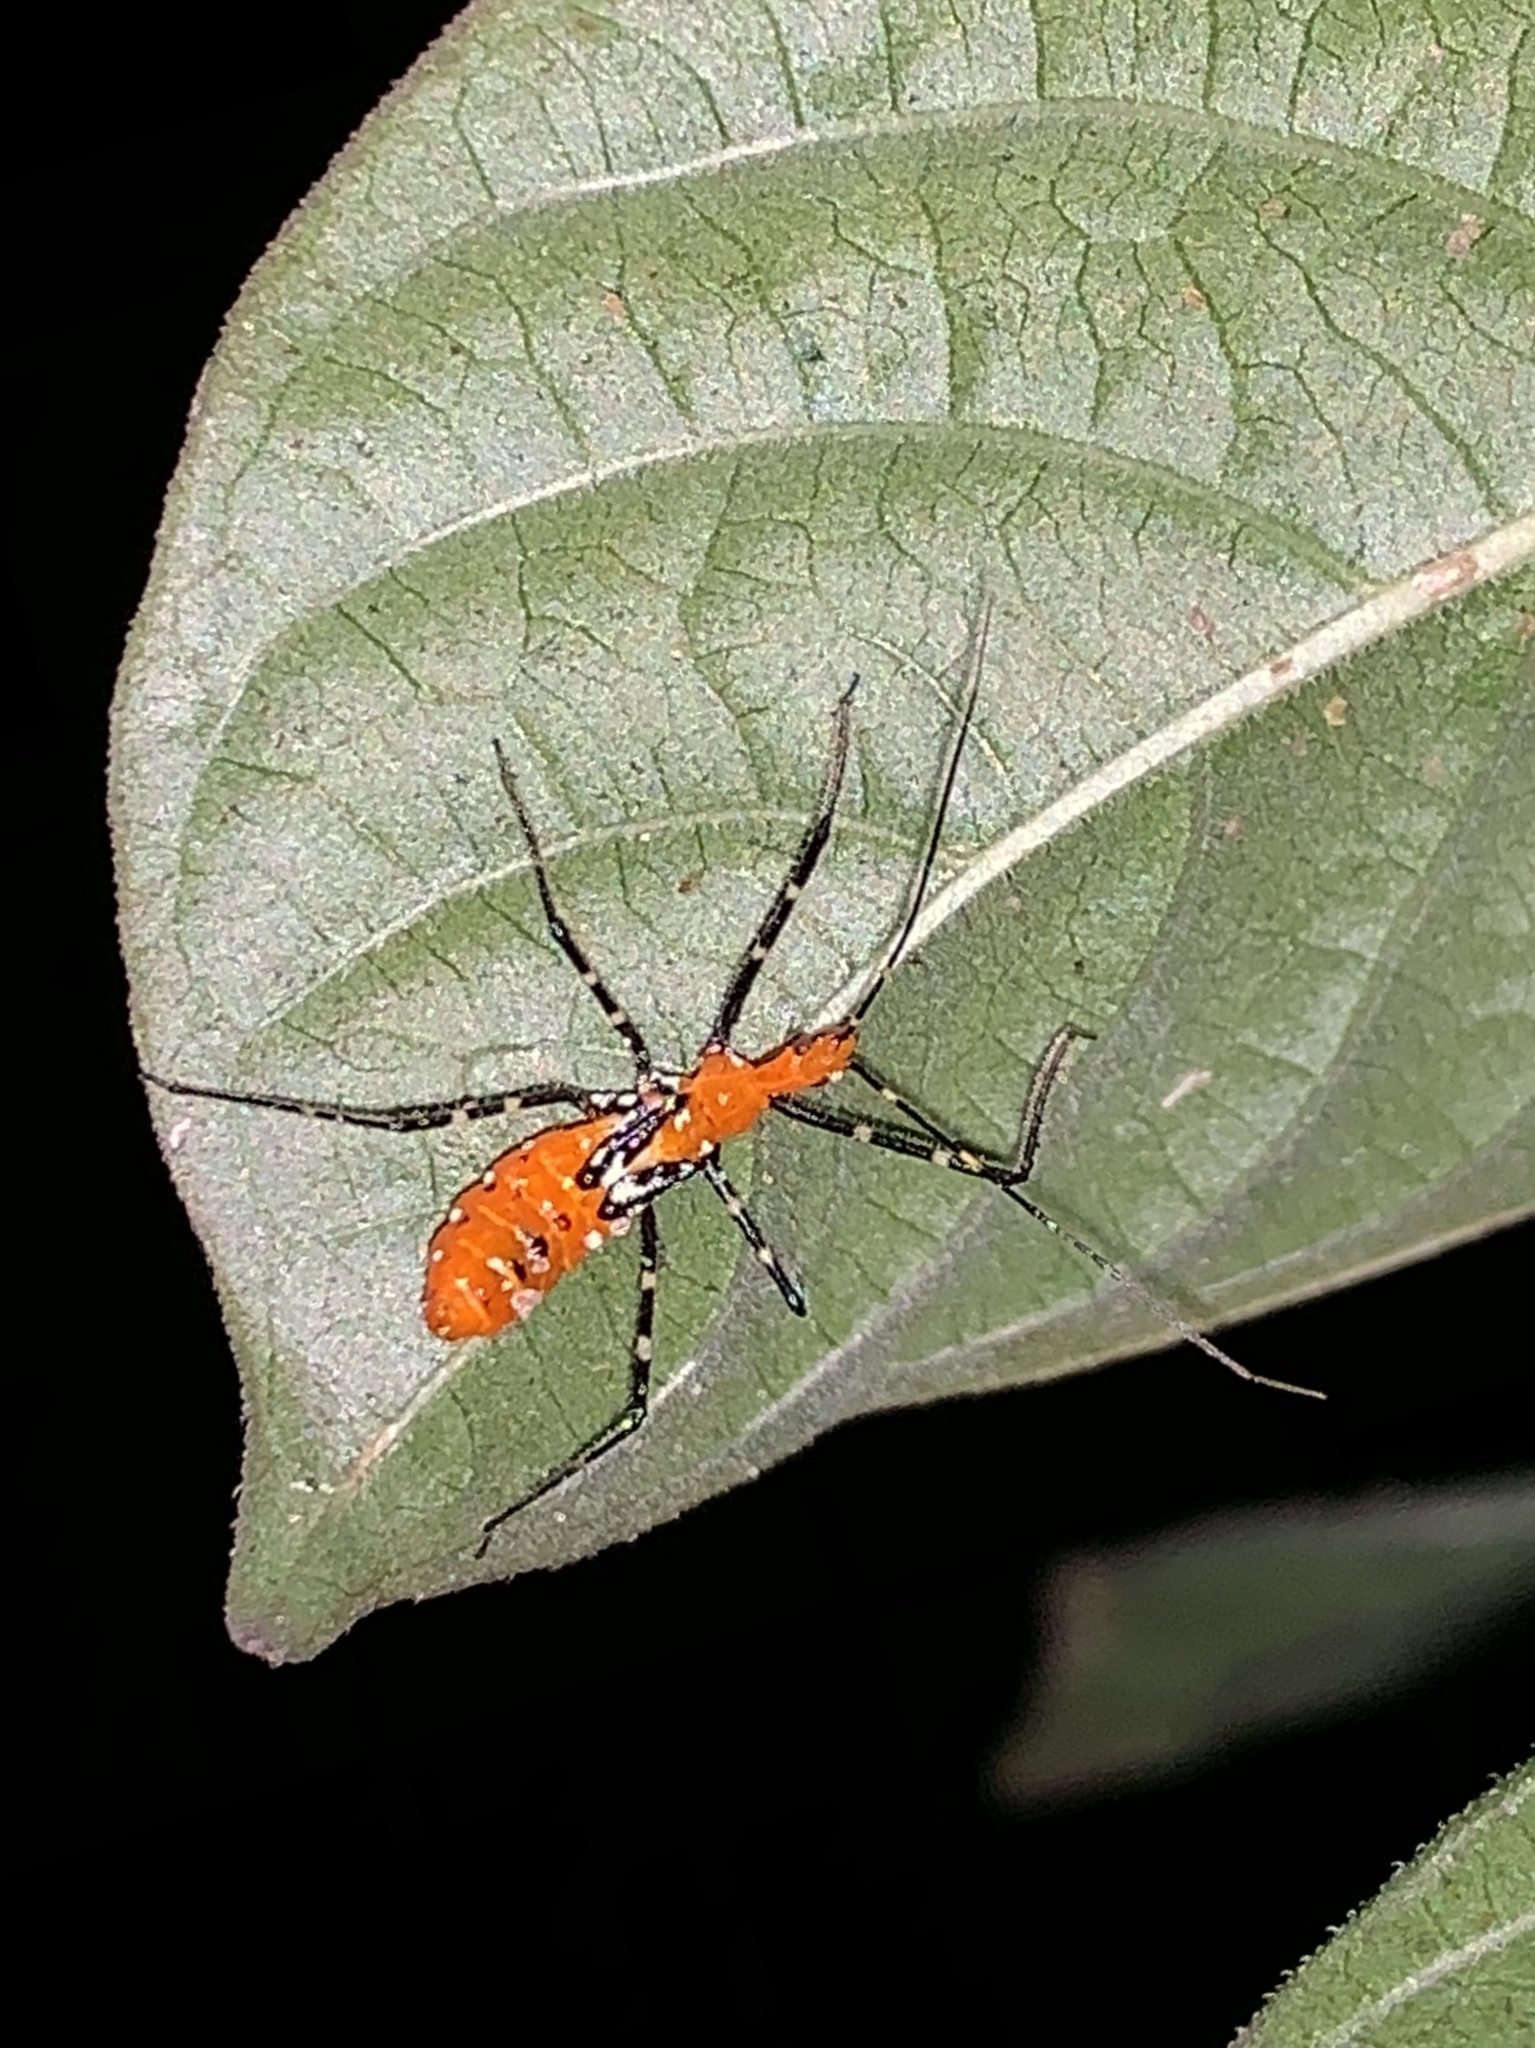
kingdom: Animalia
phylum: Arthropoda
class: Insecta
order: Hemiptera
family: Reduviidae
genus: Zelus
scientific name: Zelus longipes
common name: Milkweed assassin bug
